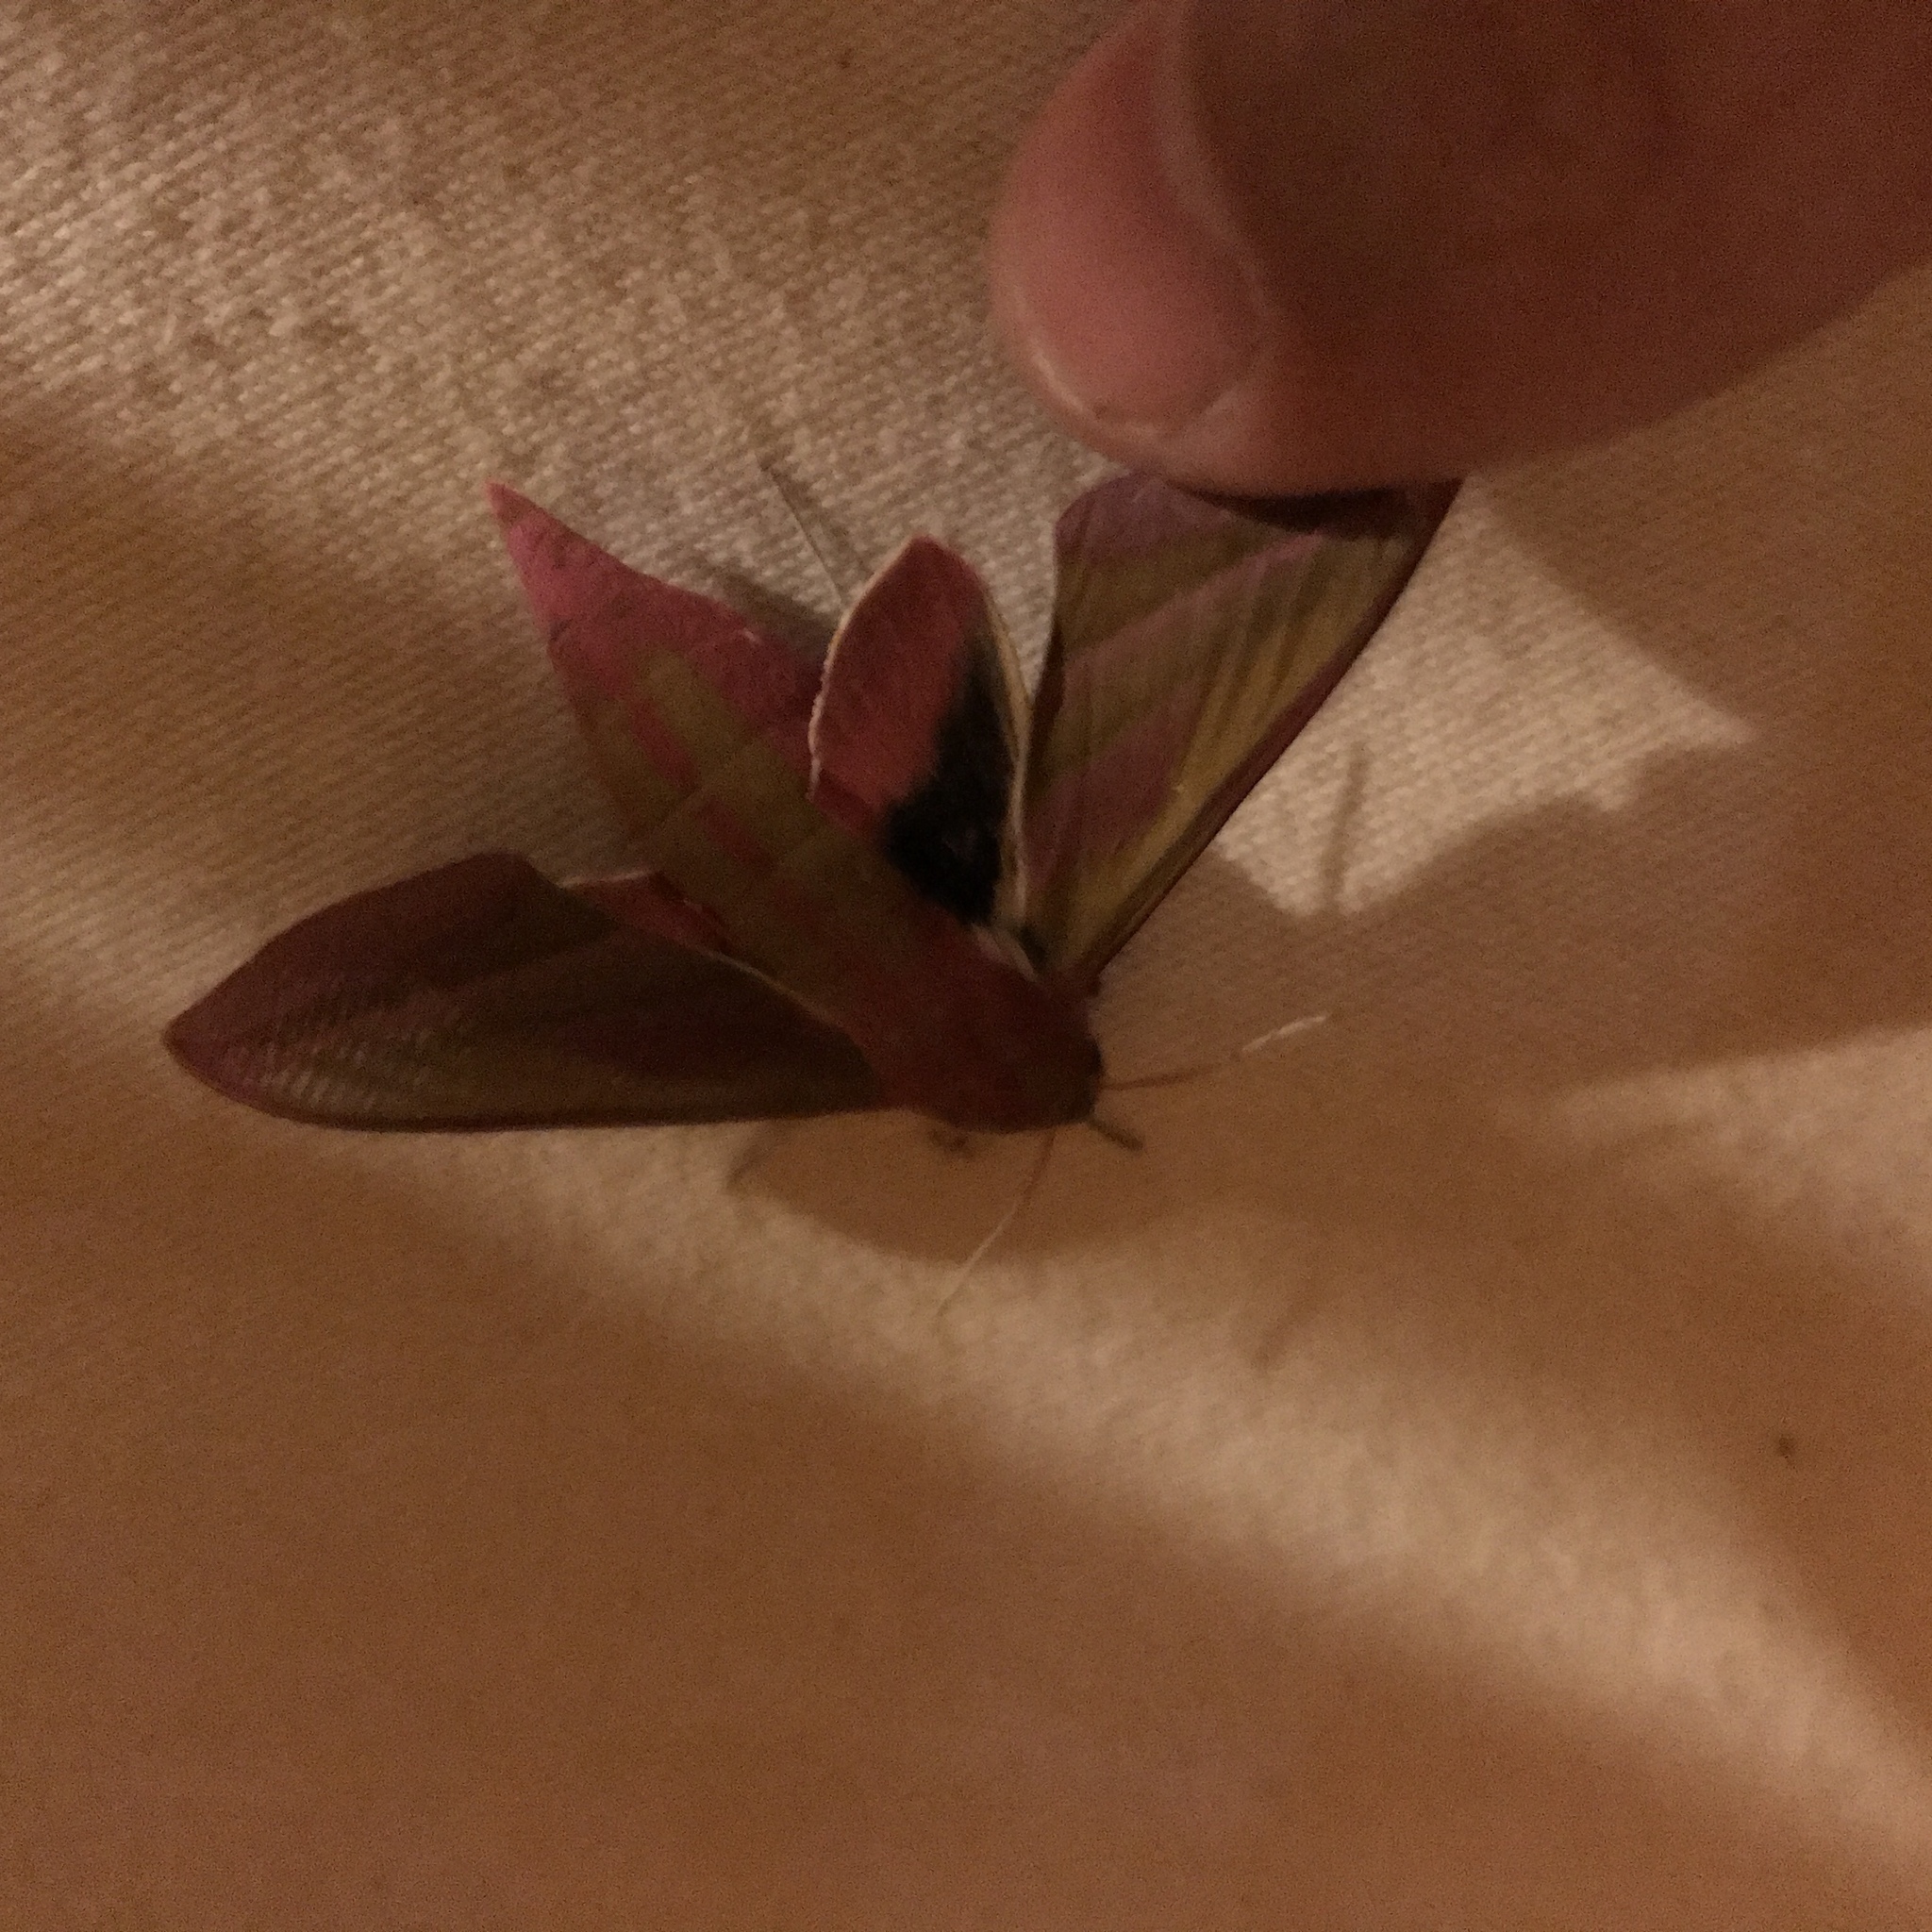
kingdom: Animalia
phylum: Arthropoda
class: Insecta
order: Lepidoptera
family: Sphingidae
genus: Deilephila
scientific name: Deilephila elpenor
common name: Elephant hawk-moth
